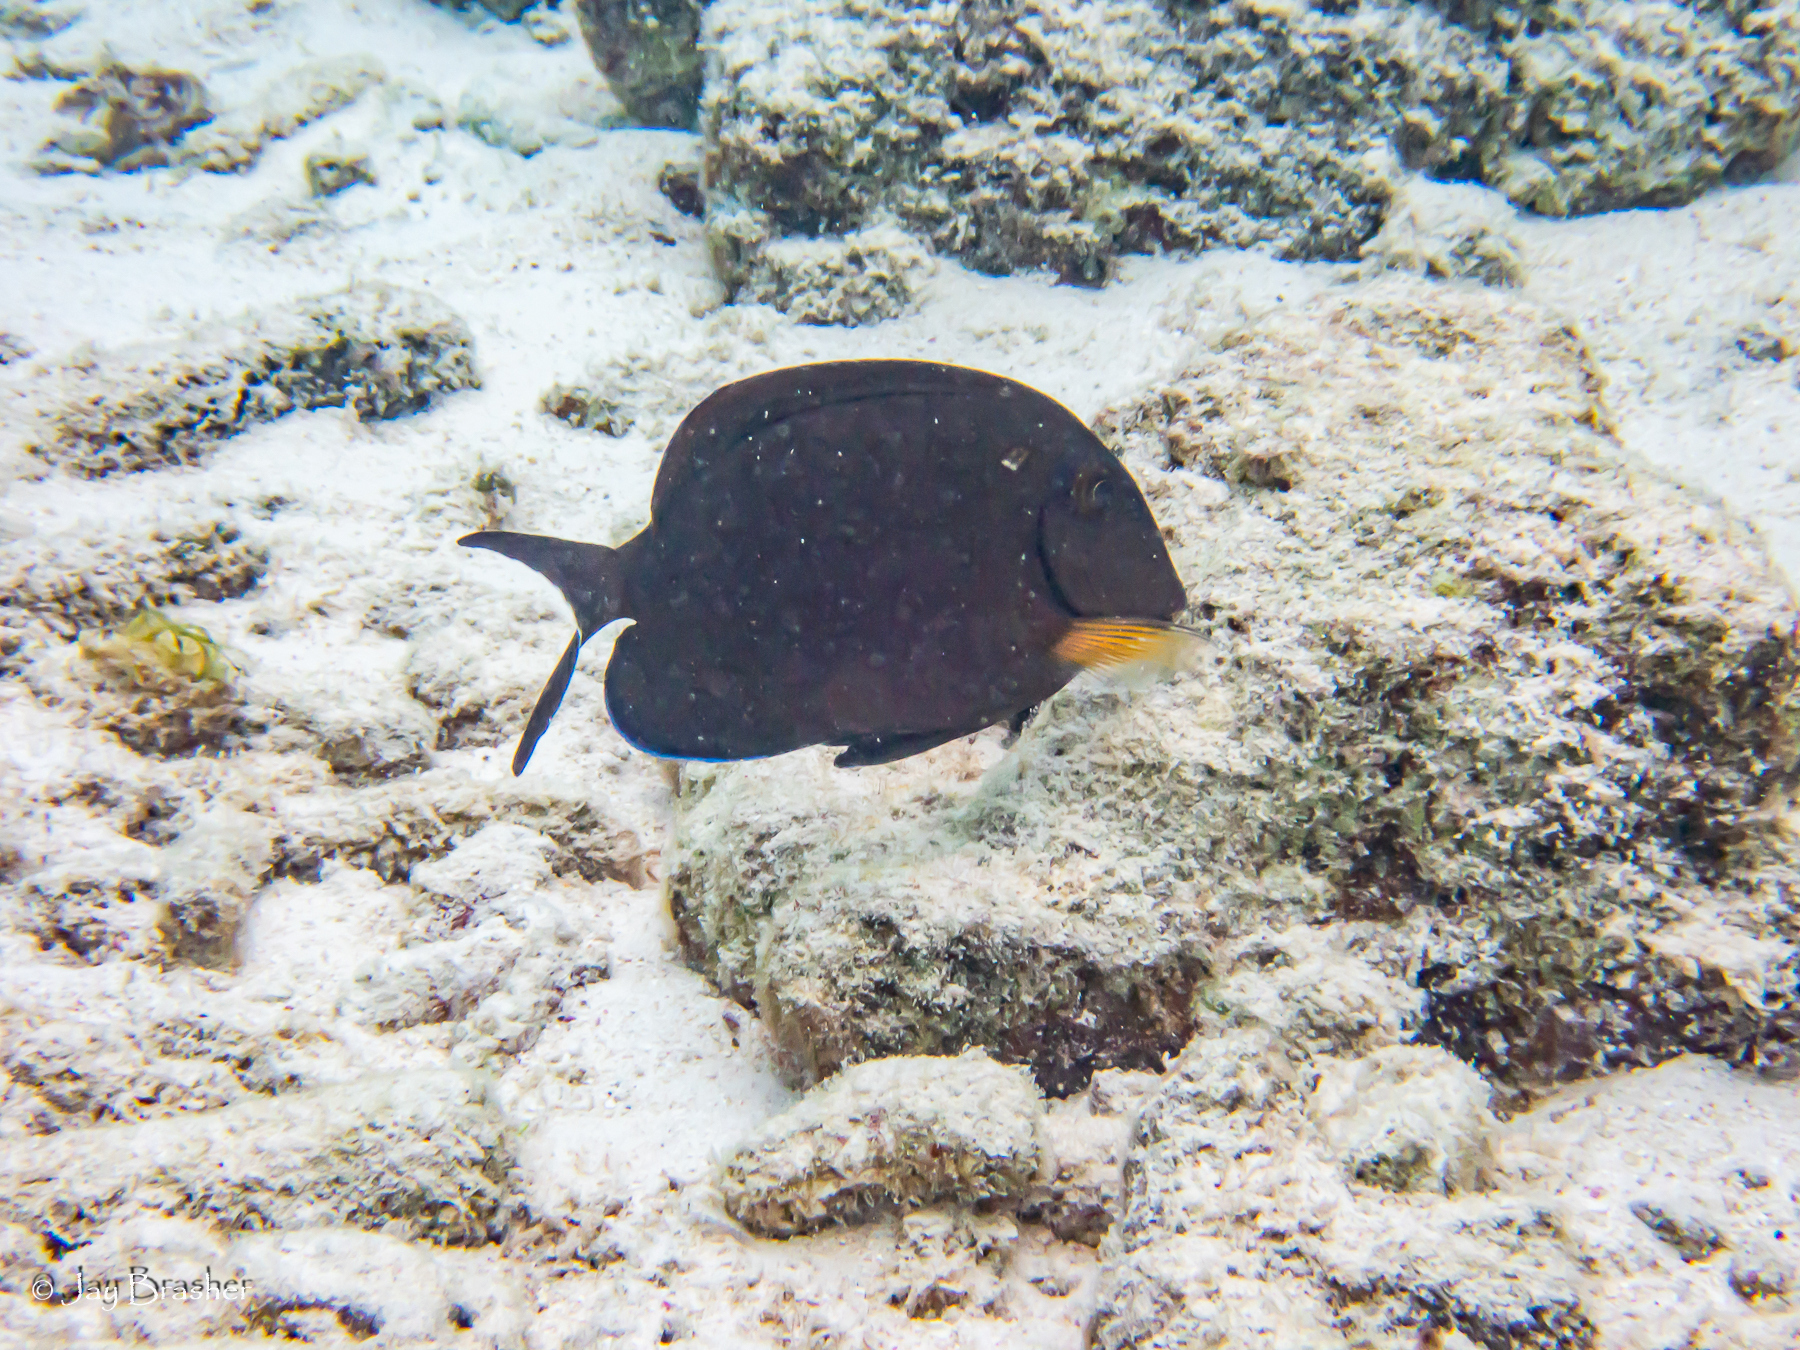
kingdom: Animalia
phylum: Chordata
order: Perciformes
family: Acanthuridae
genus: Acanthurus
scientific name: Acanthurus bahianus
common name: Ocean surgeon
